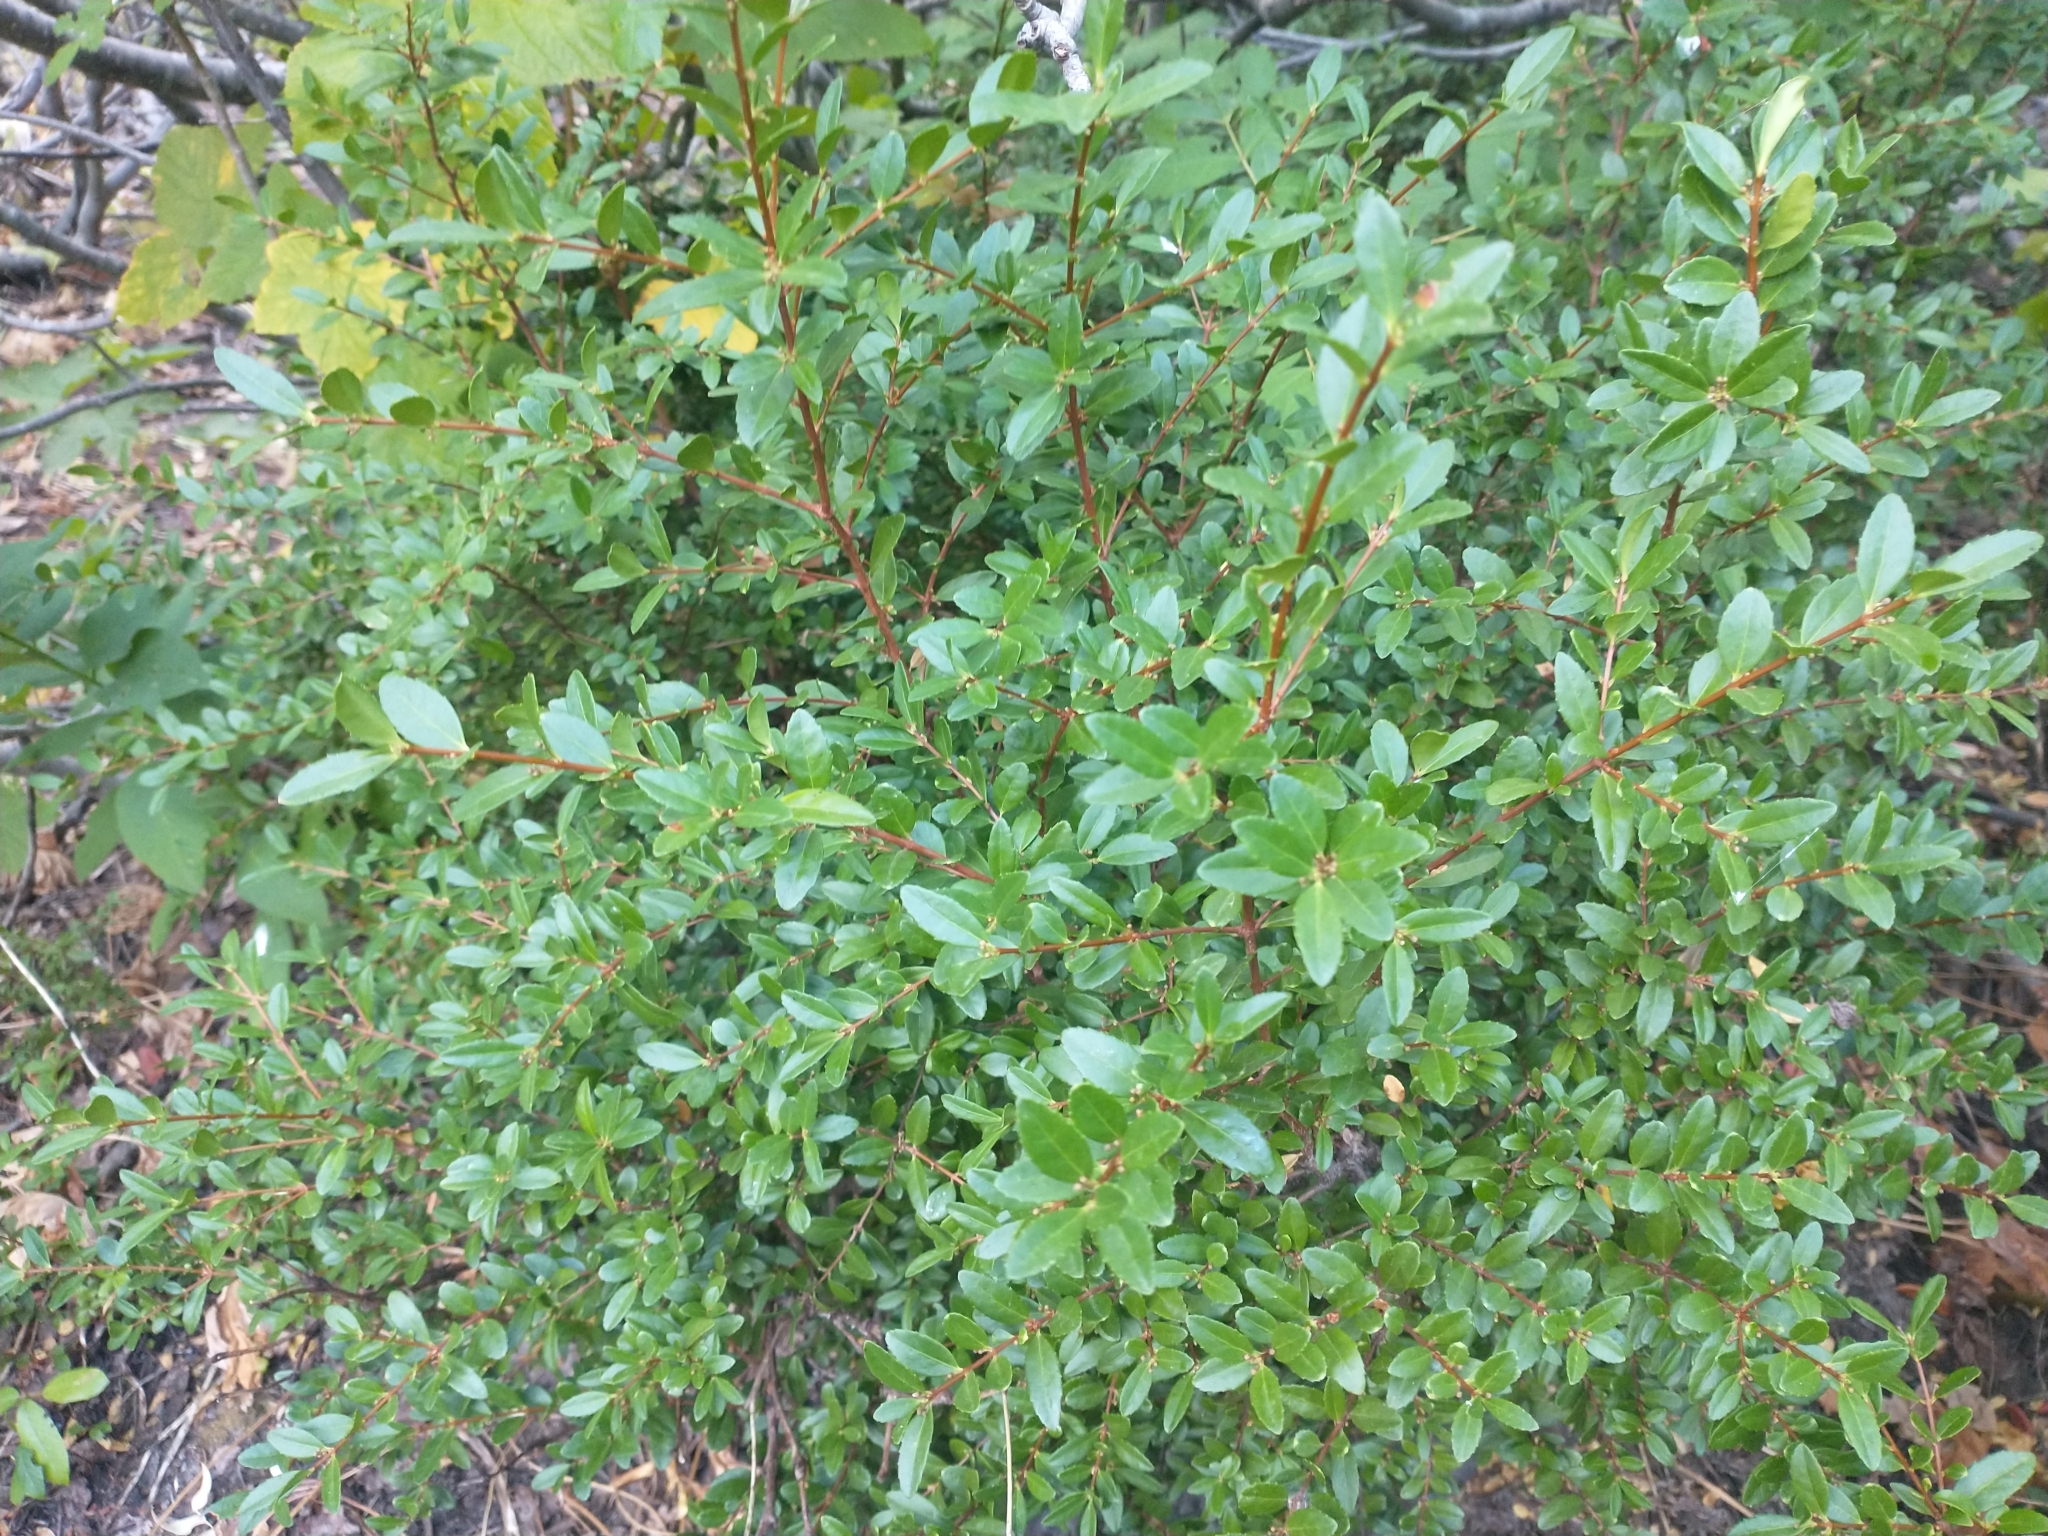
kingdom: Plantae
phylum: Tracheophyta
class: Magnoliopsida
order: Celastrales
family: Celastraceae
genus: Paxistima
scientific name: Paxistima myrsinites
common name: Mountain-lover
